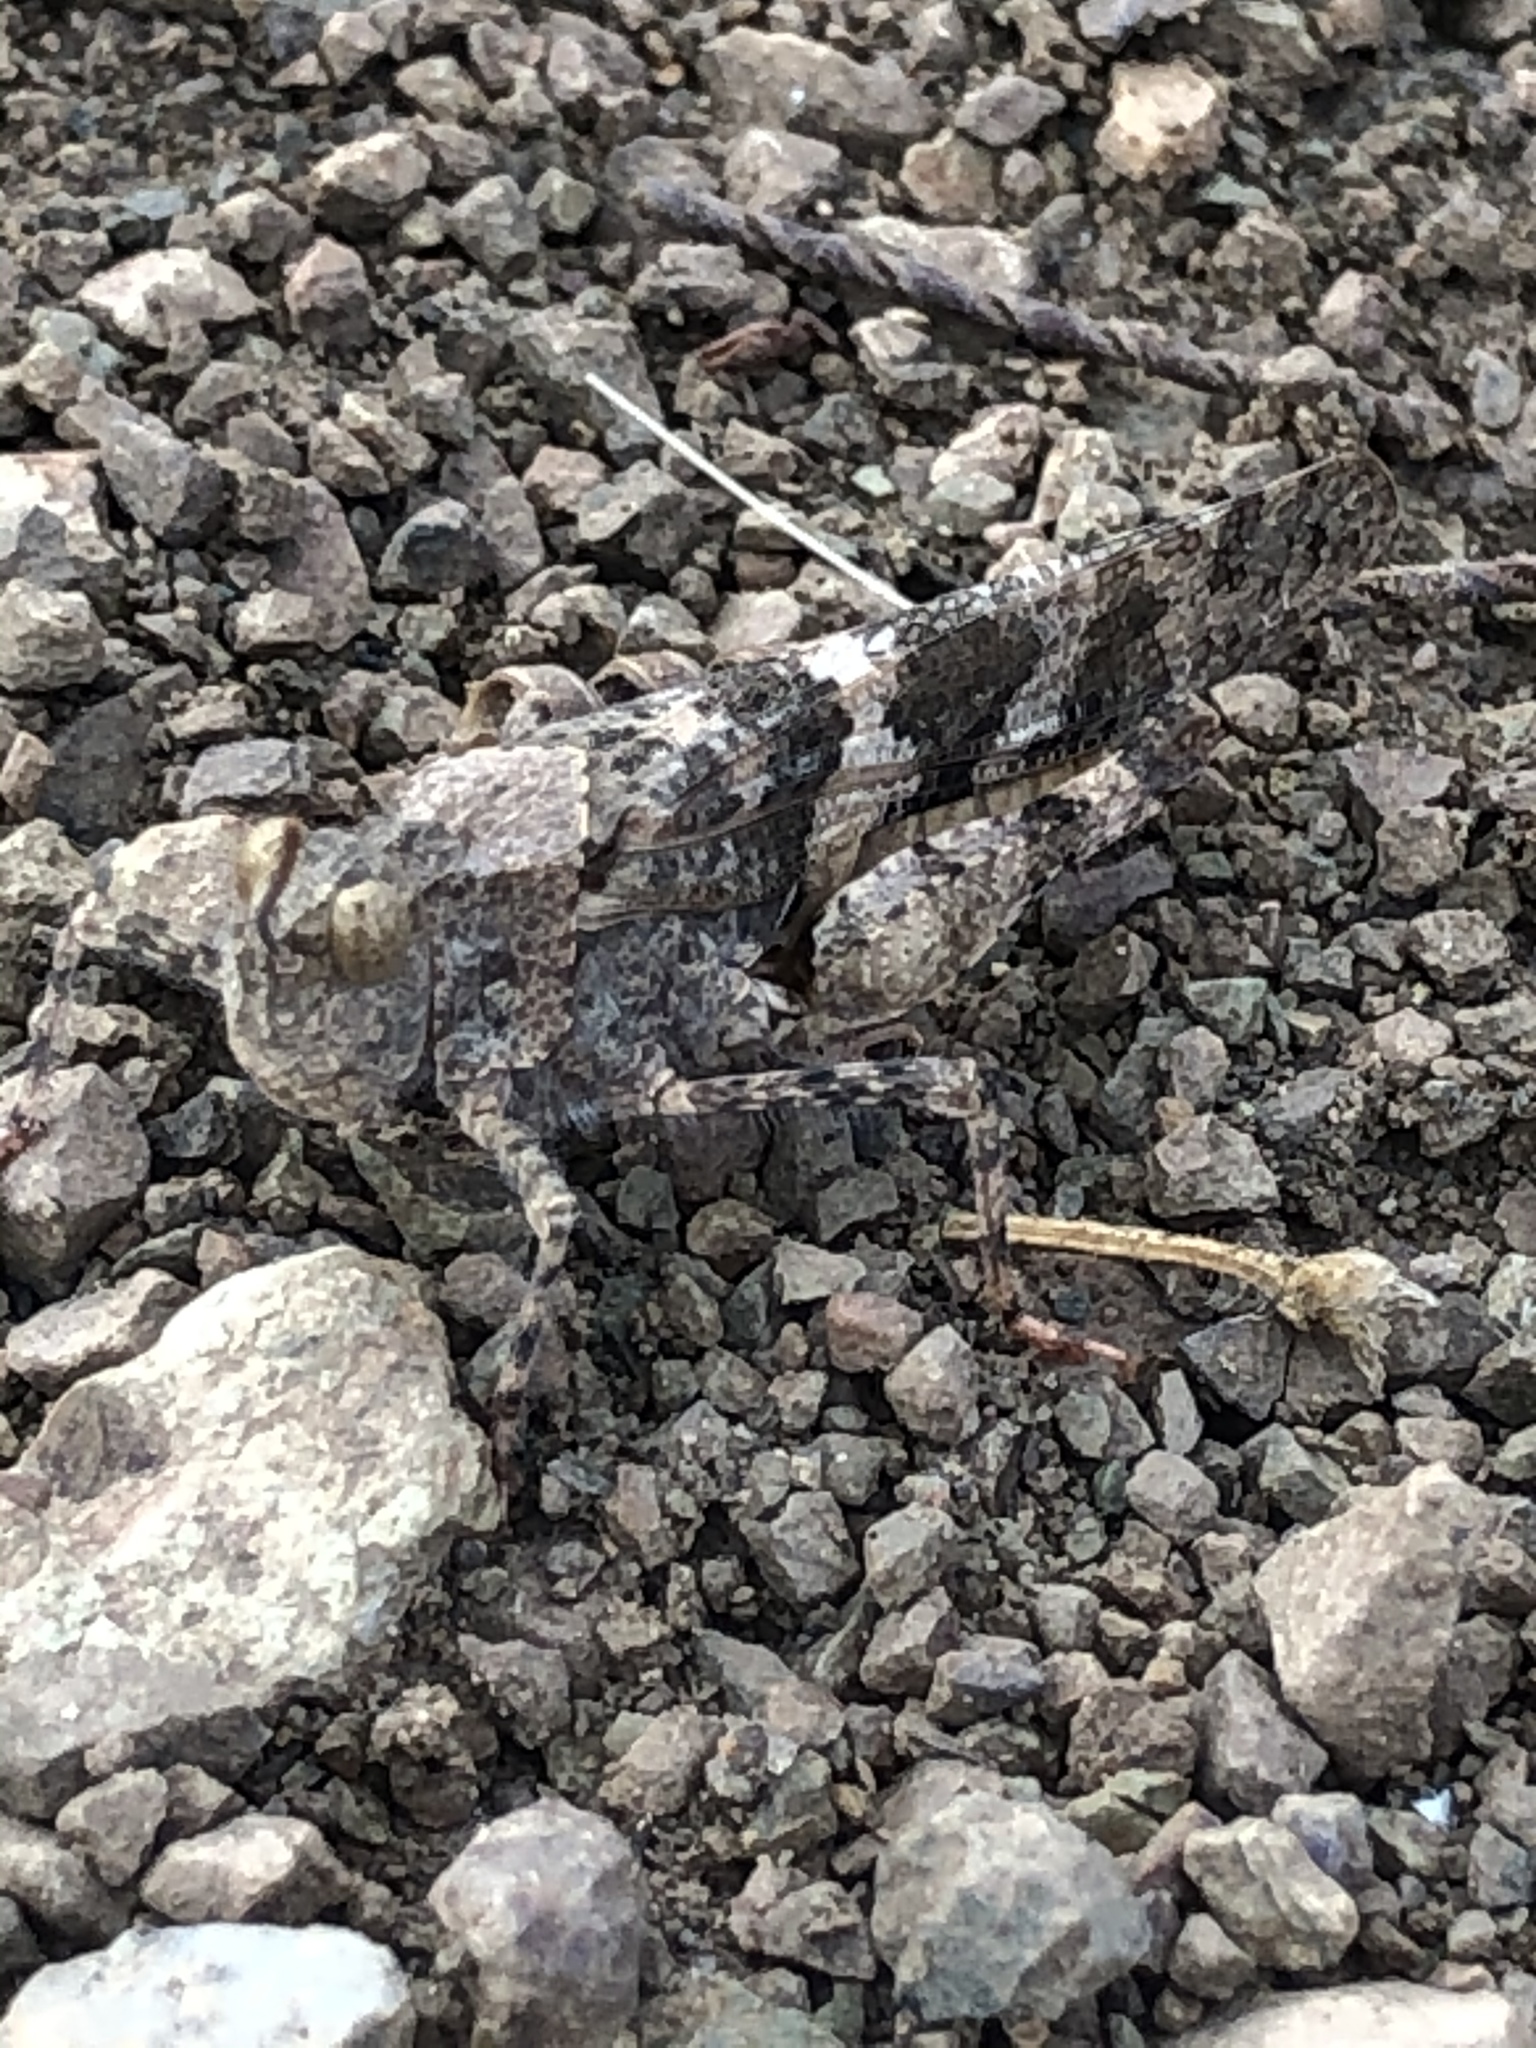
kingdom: Animalia
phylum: Arthropoda
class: Insecta
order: Orthoptera
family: Acrididae
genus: Trimerotropis
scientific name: Trimerotropis pallidipennis
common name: Pallid-winged grasshopper
